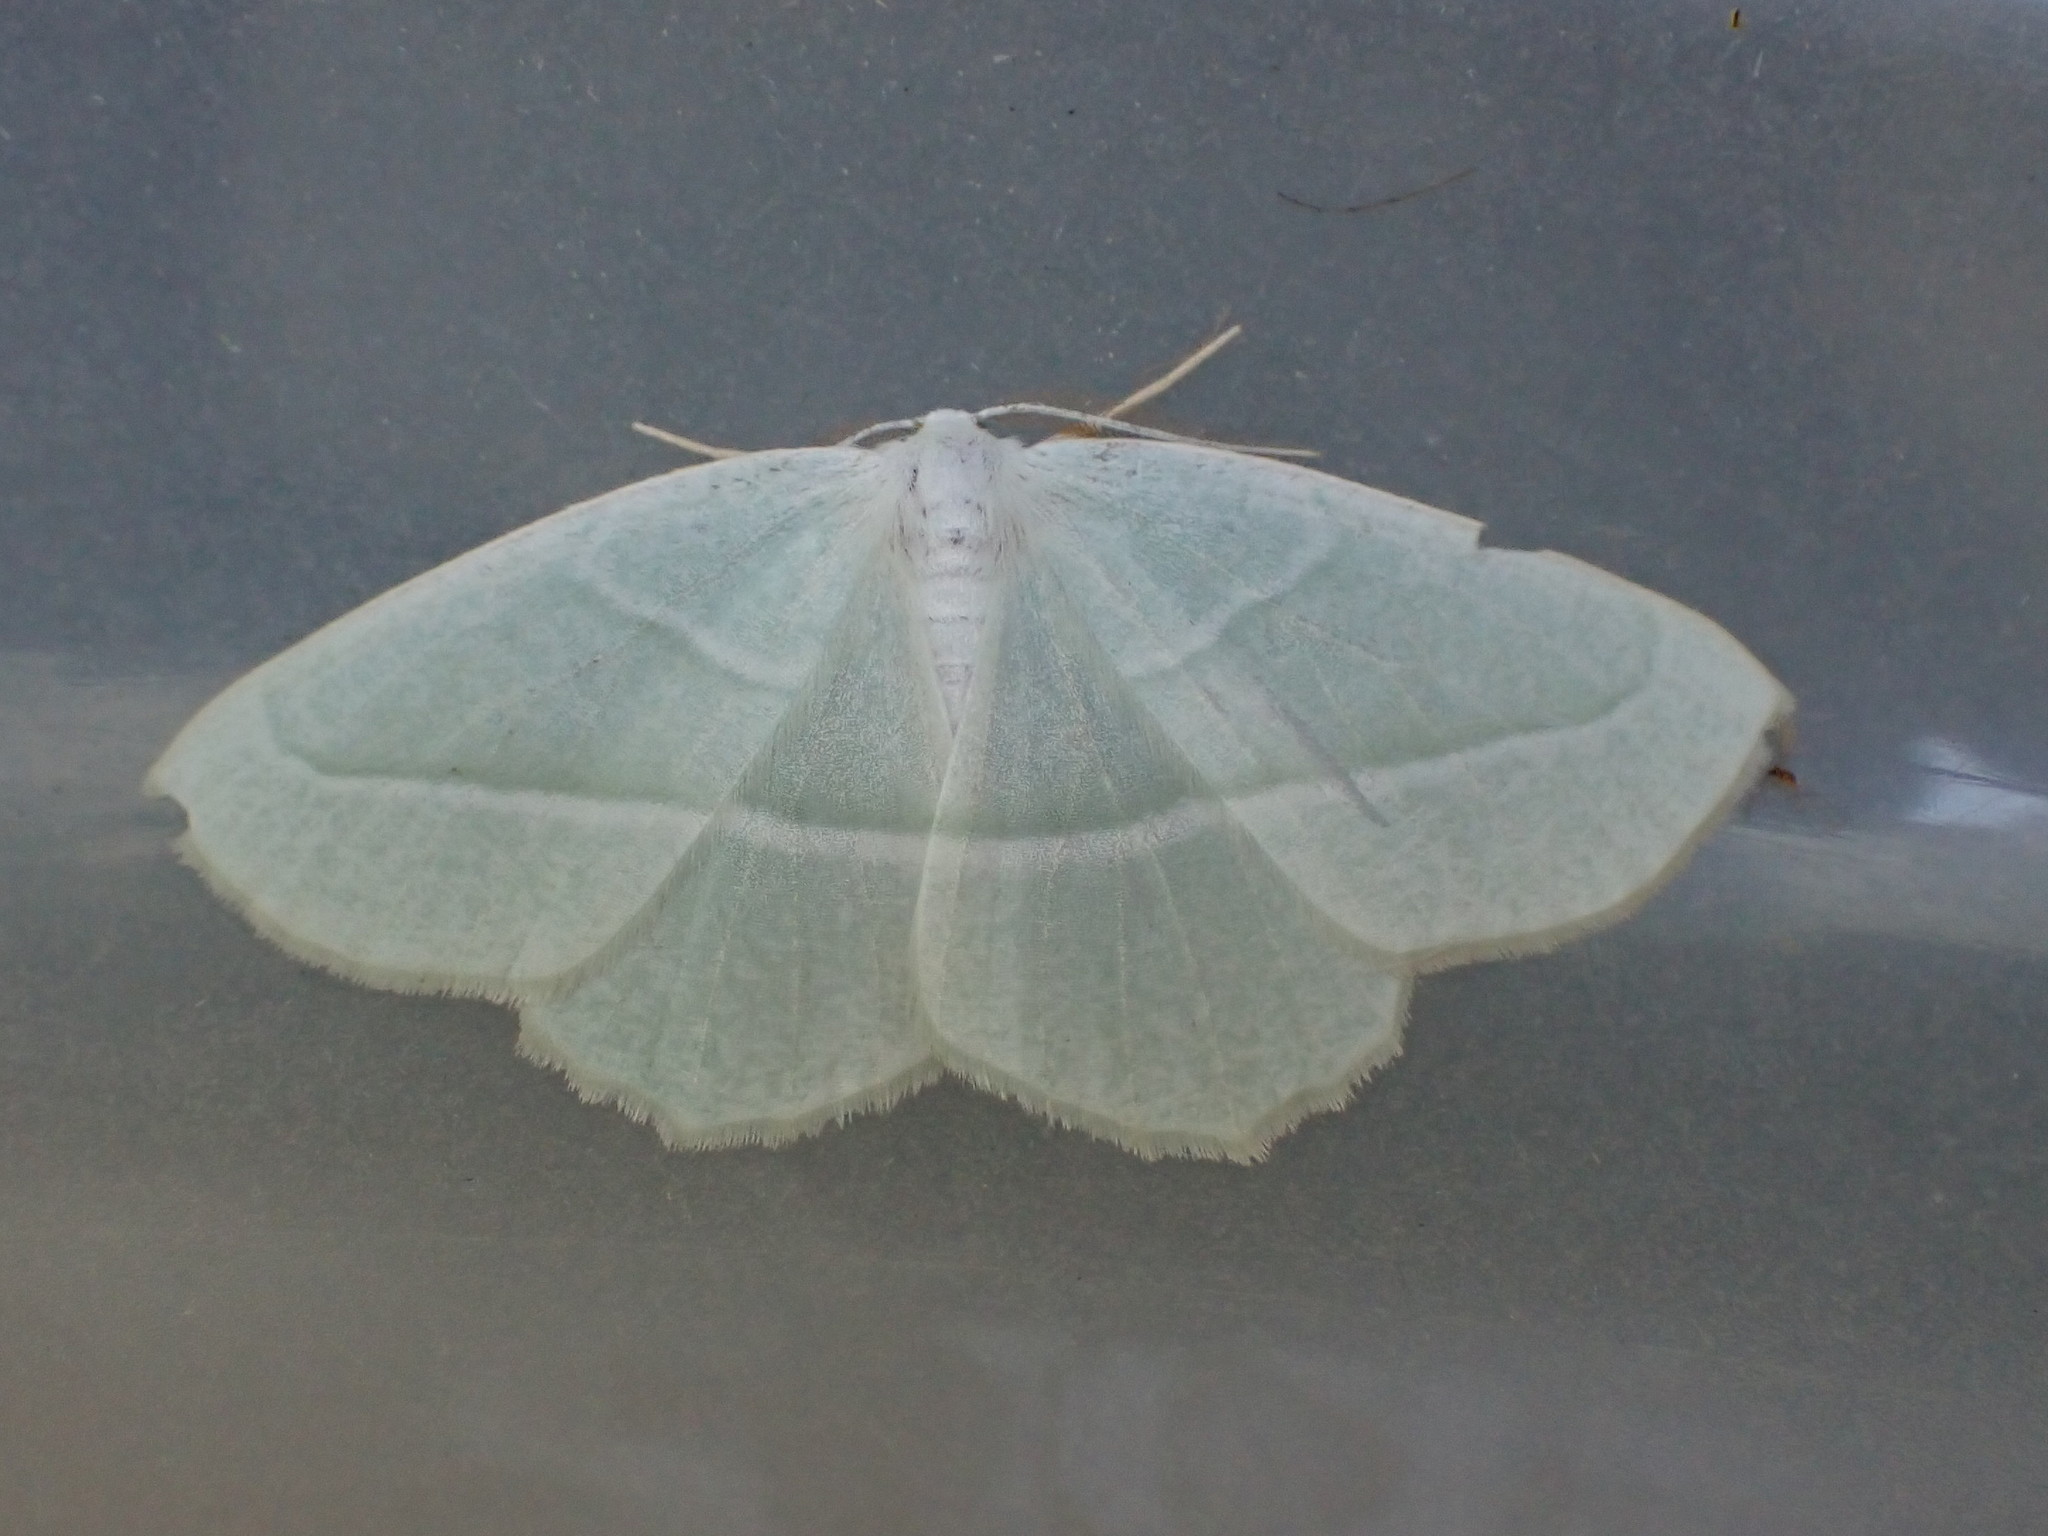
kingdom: Animalia
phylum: Arthropoda
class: Insecta
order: Lepidoptera
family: Geometridae
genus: Campaea
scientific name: Campaea perlata
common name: Fringed looper
